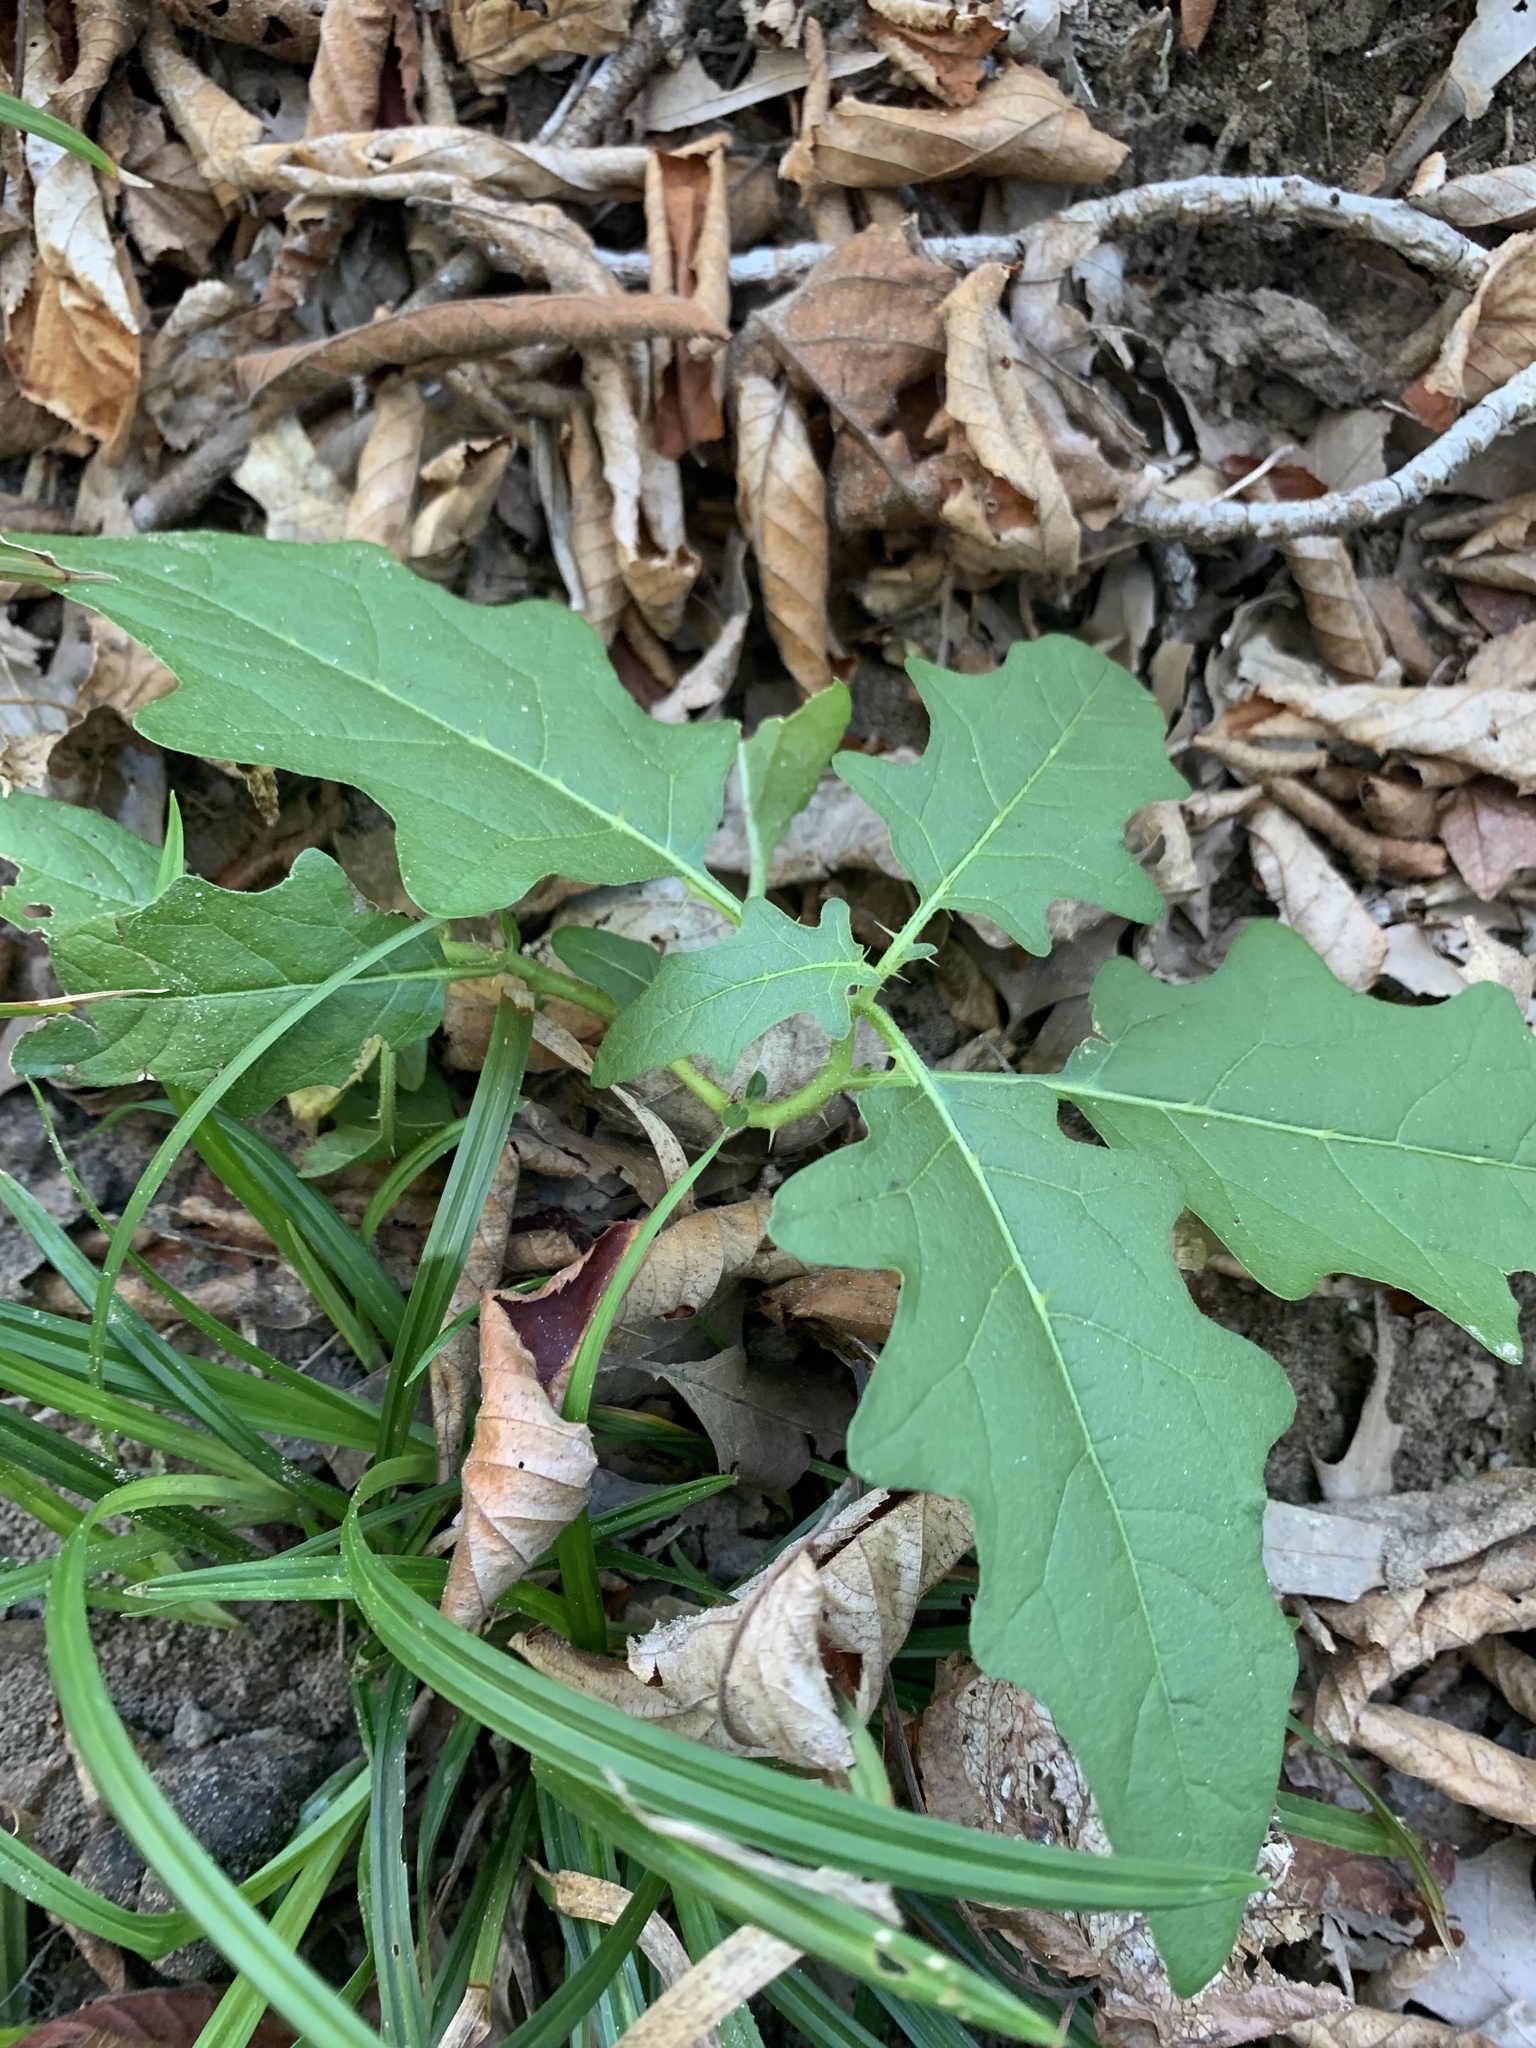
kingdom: Plantae
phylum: Tracheophyta
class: Magnoliopsida
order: Solanales
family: Solanaceae
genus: Solanum
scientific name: Solanum carolinense
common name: Horse-nettle
